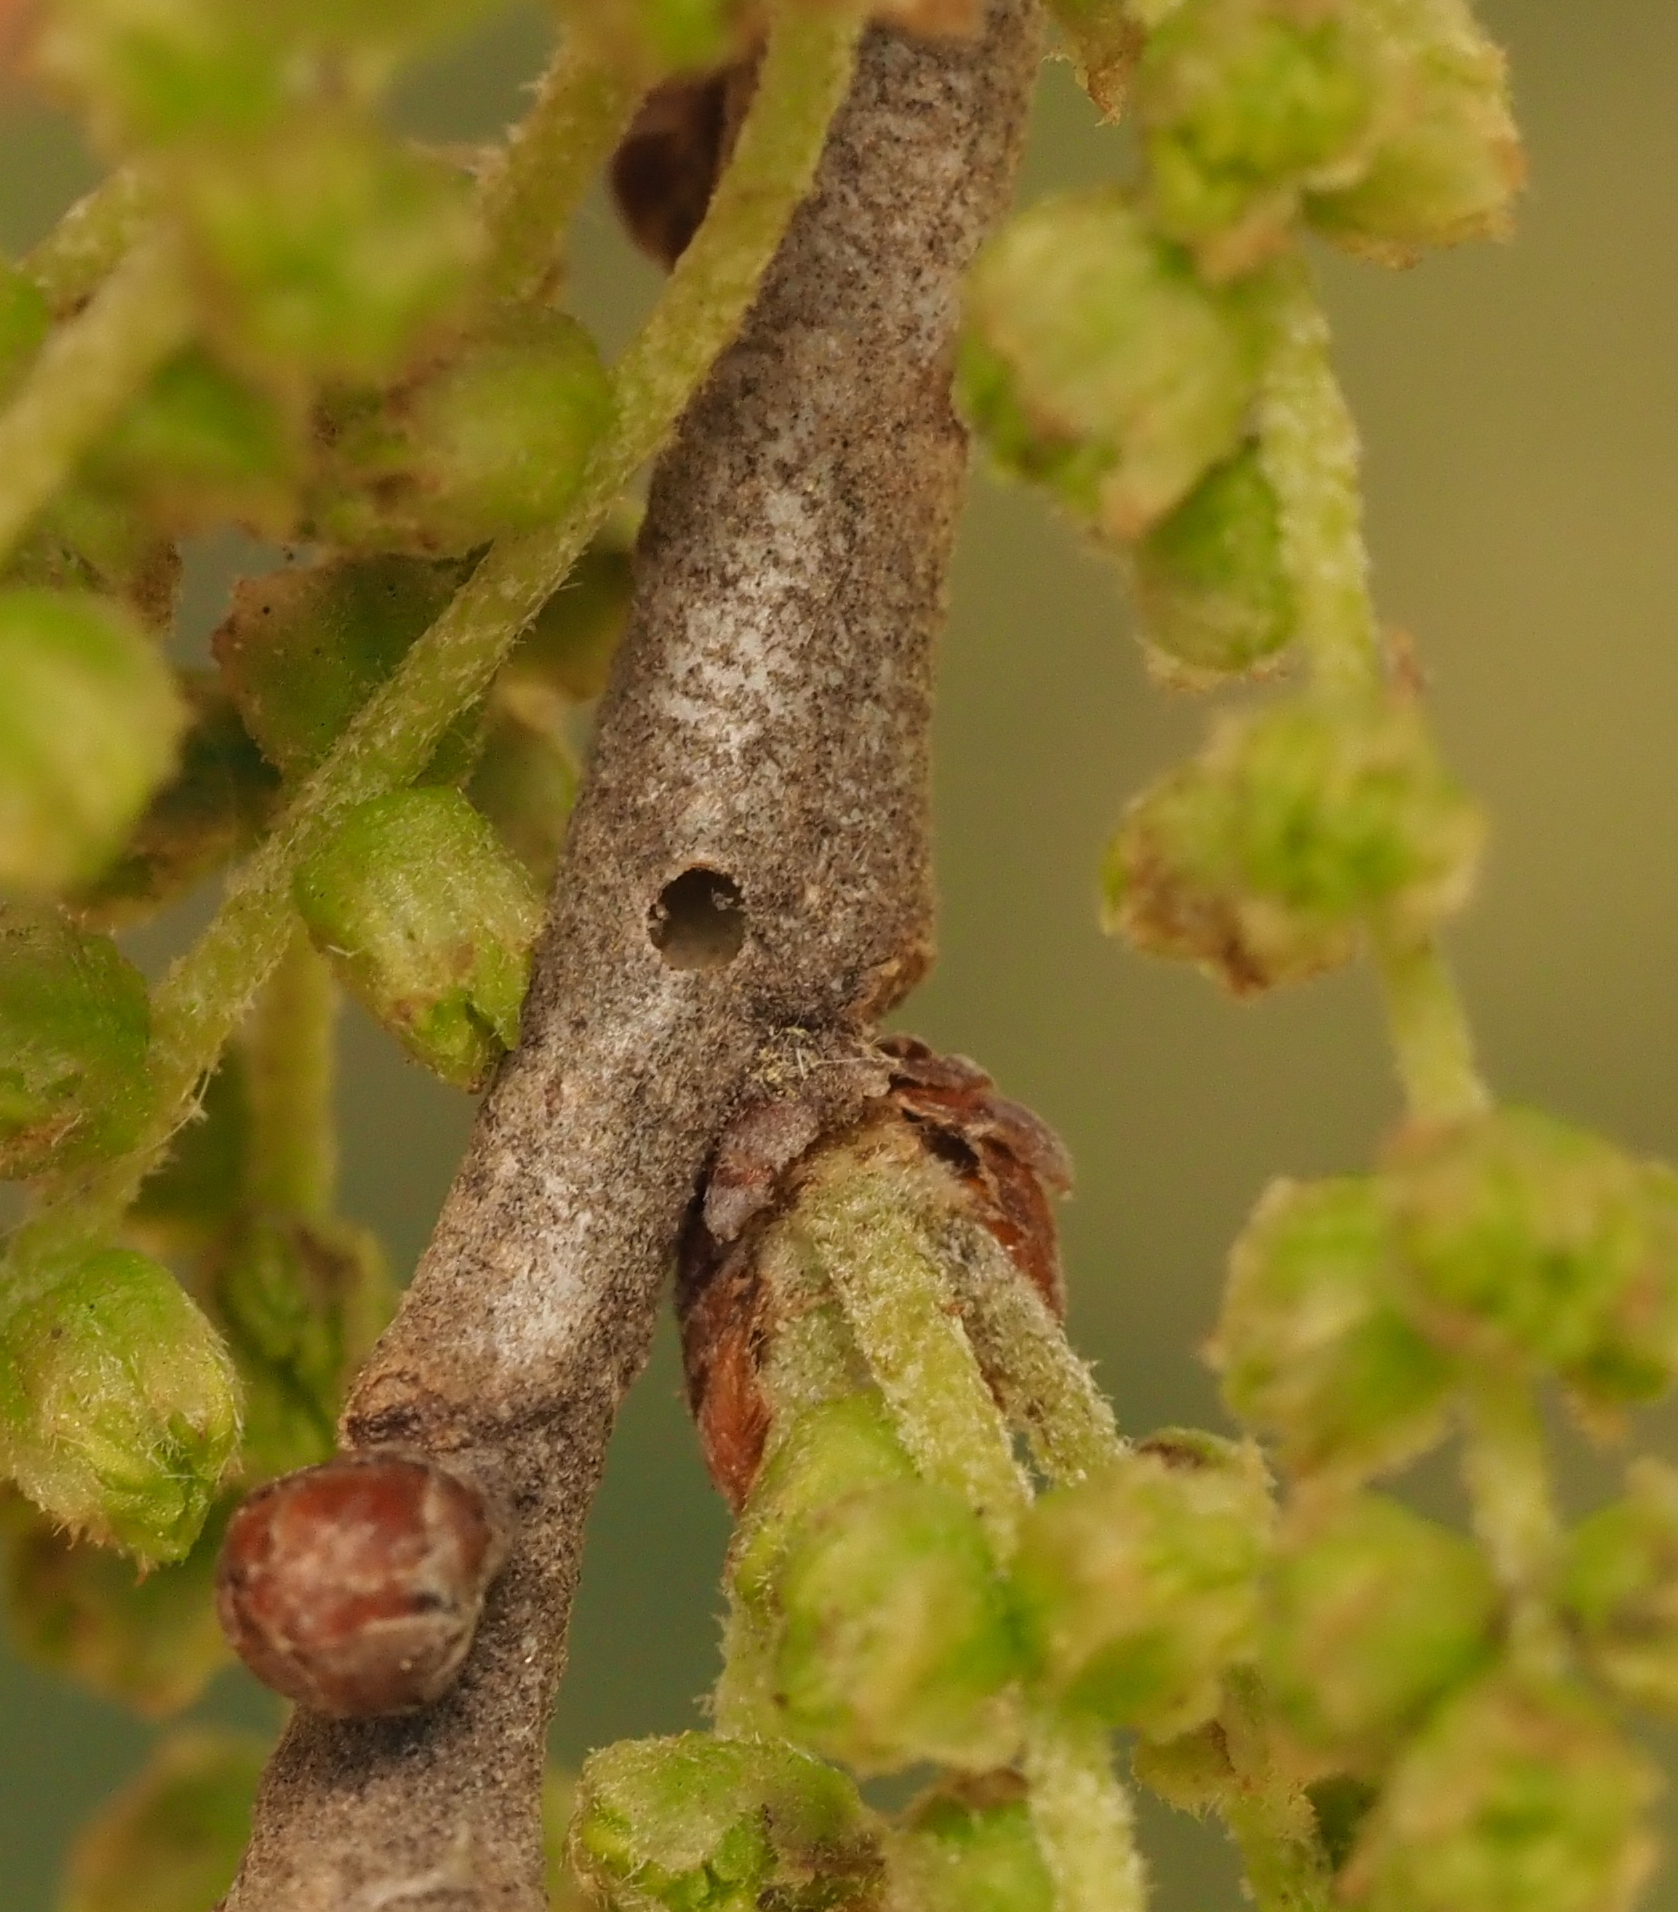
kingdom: Animalia
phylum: Arthropoda
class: Insecta
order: Hymenoptera
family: Cynipidae
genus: Neuroterus
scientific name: Neuroterus valhalla
